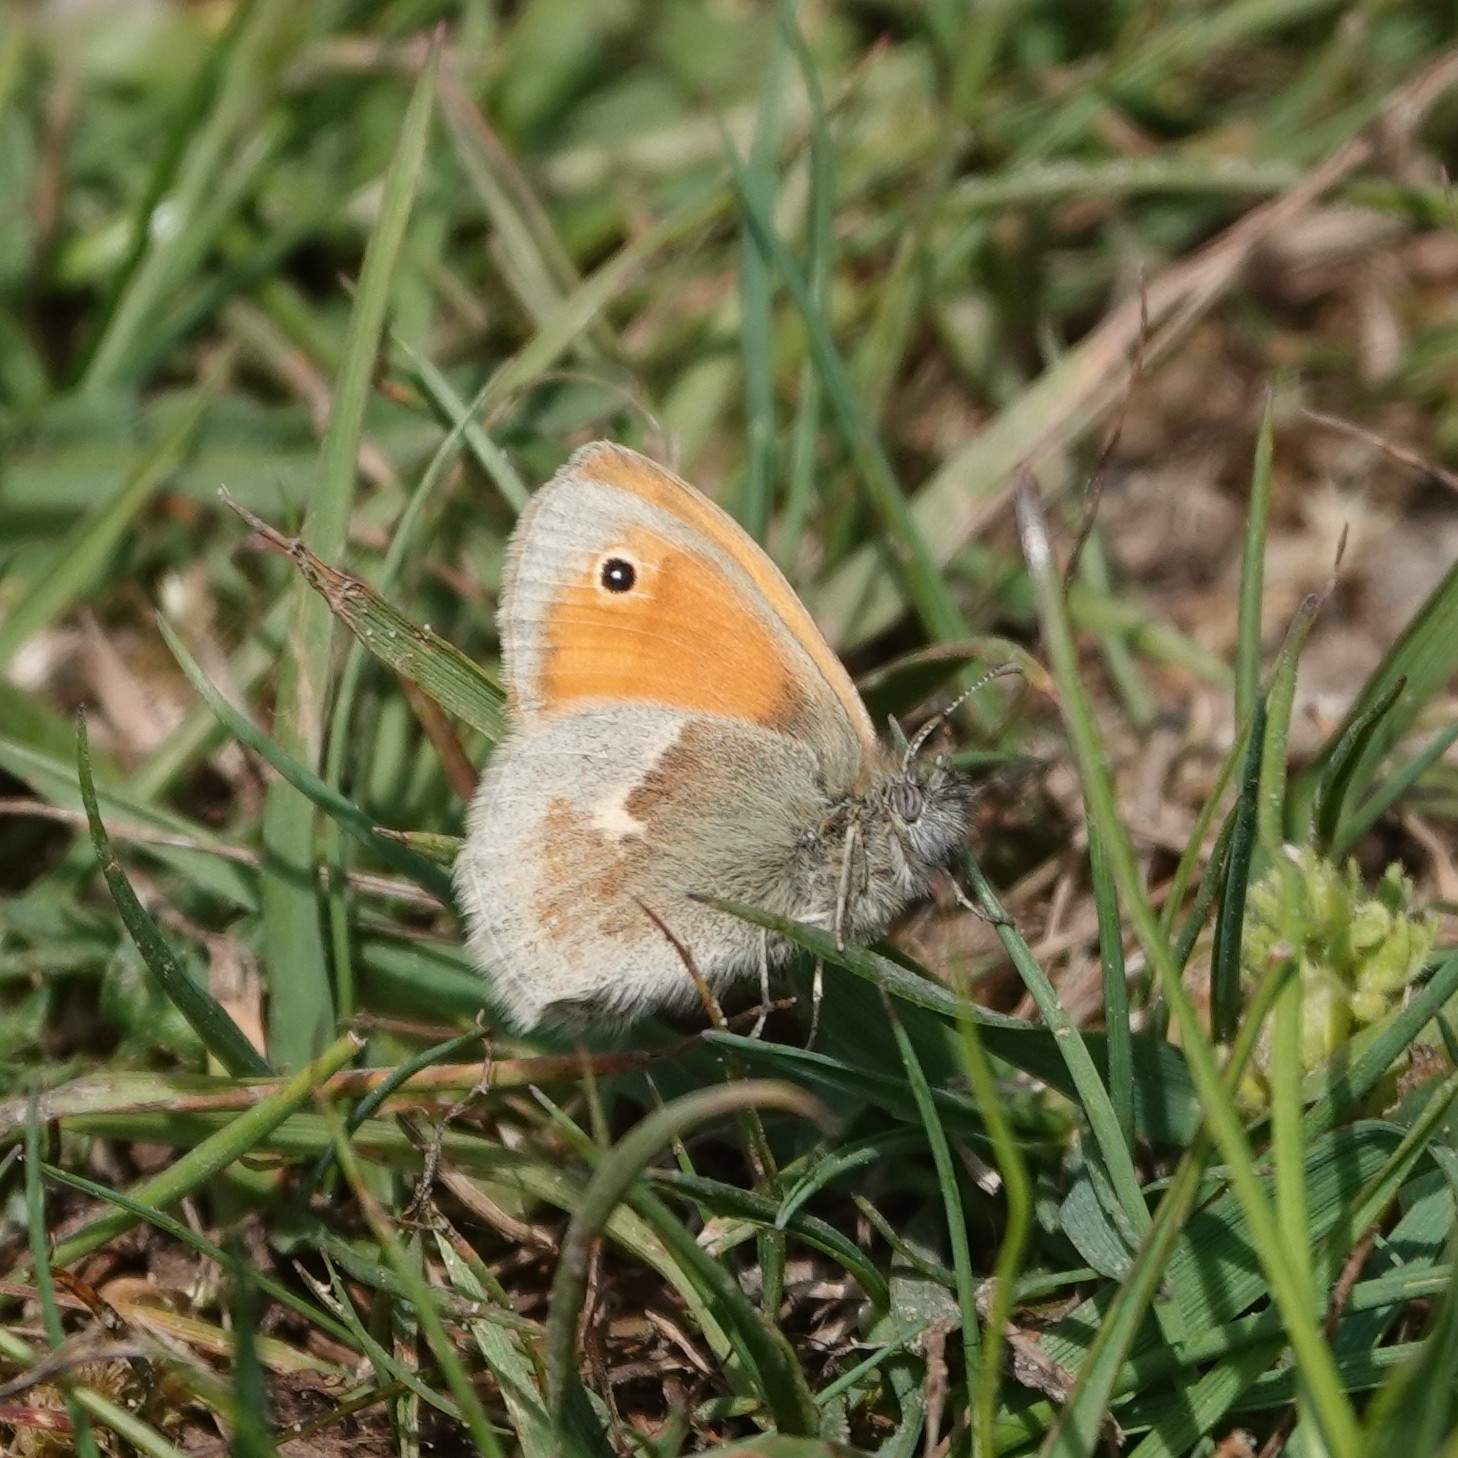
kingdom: Animalia
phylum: Arthropoda
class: Insecta
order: Lepidoptera
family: Nymphalidae
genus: Coenonympha
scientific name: Coenonympha pamphilus
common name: Small heath
